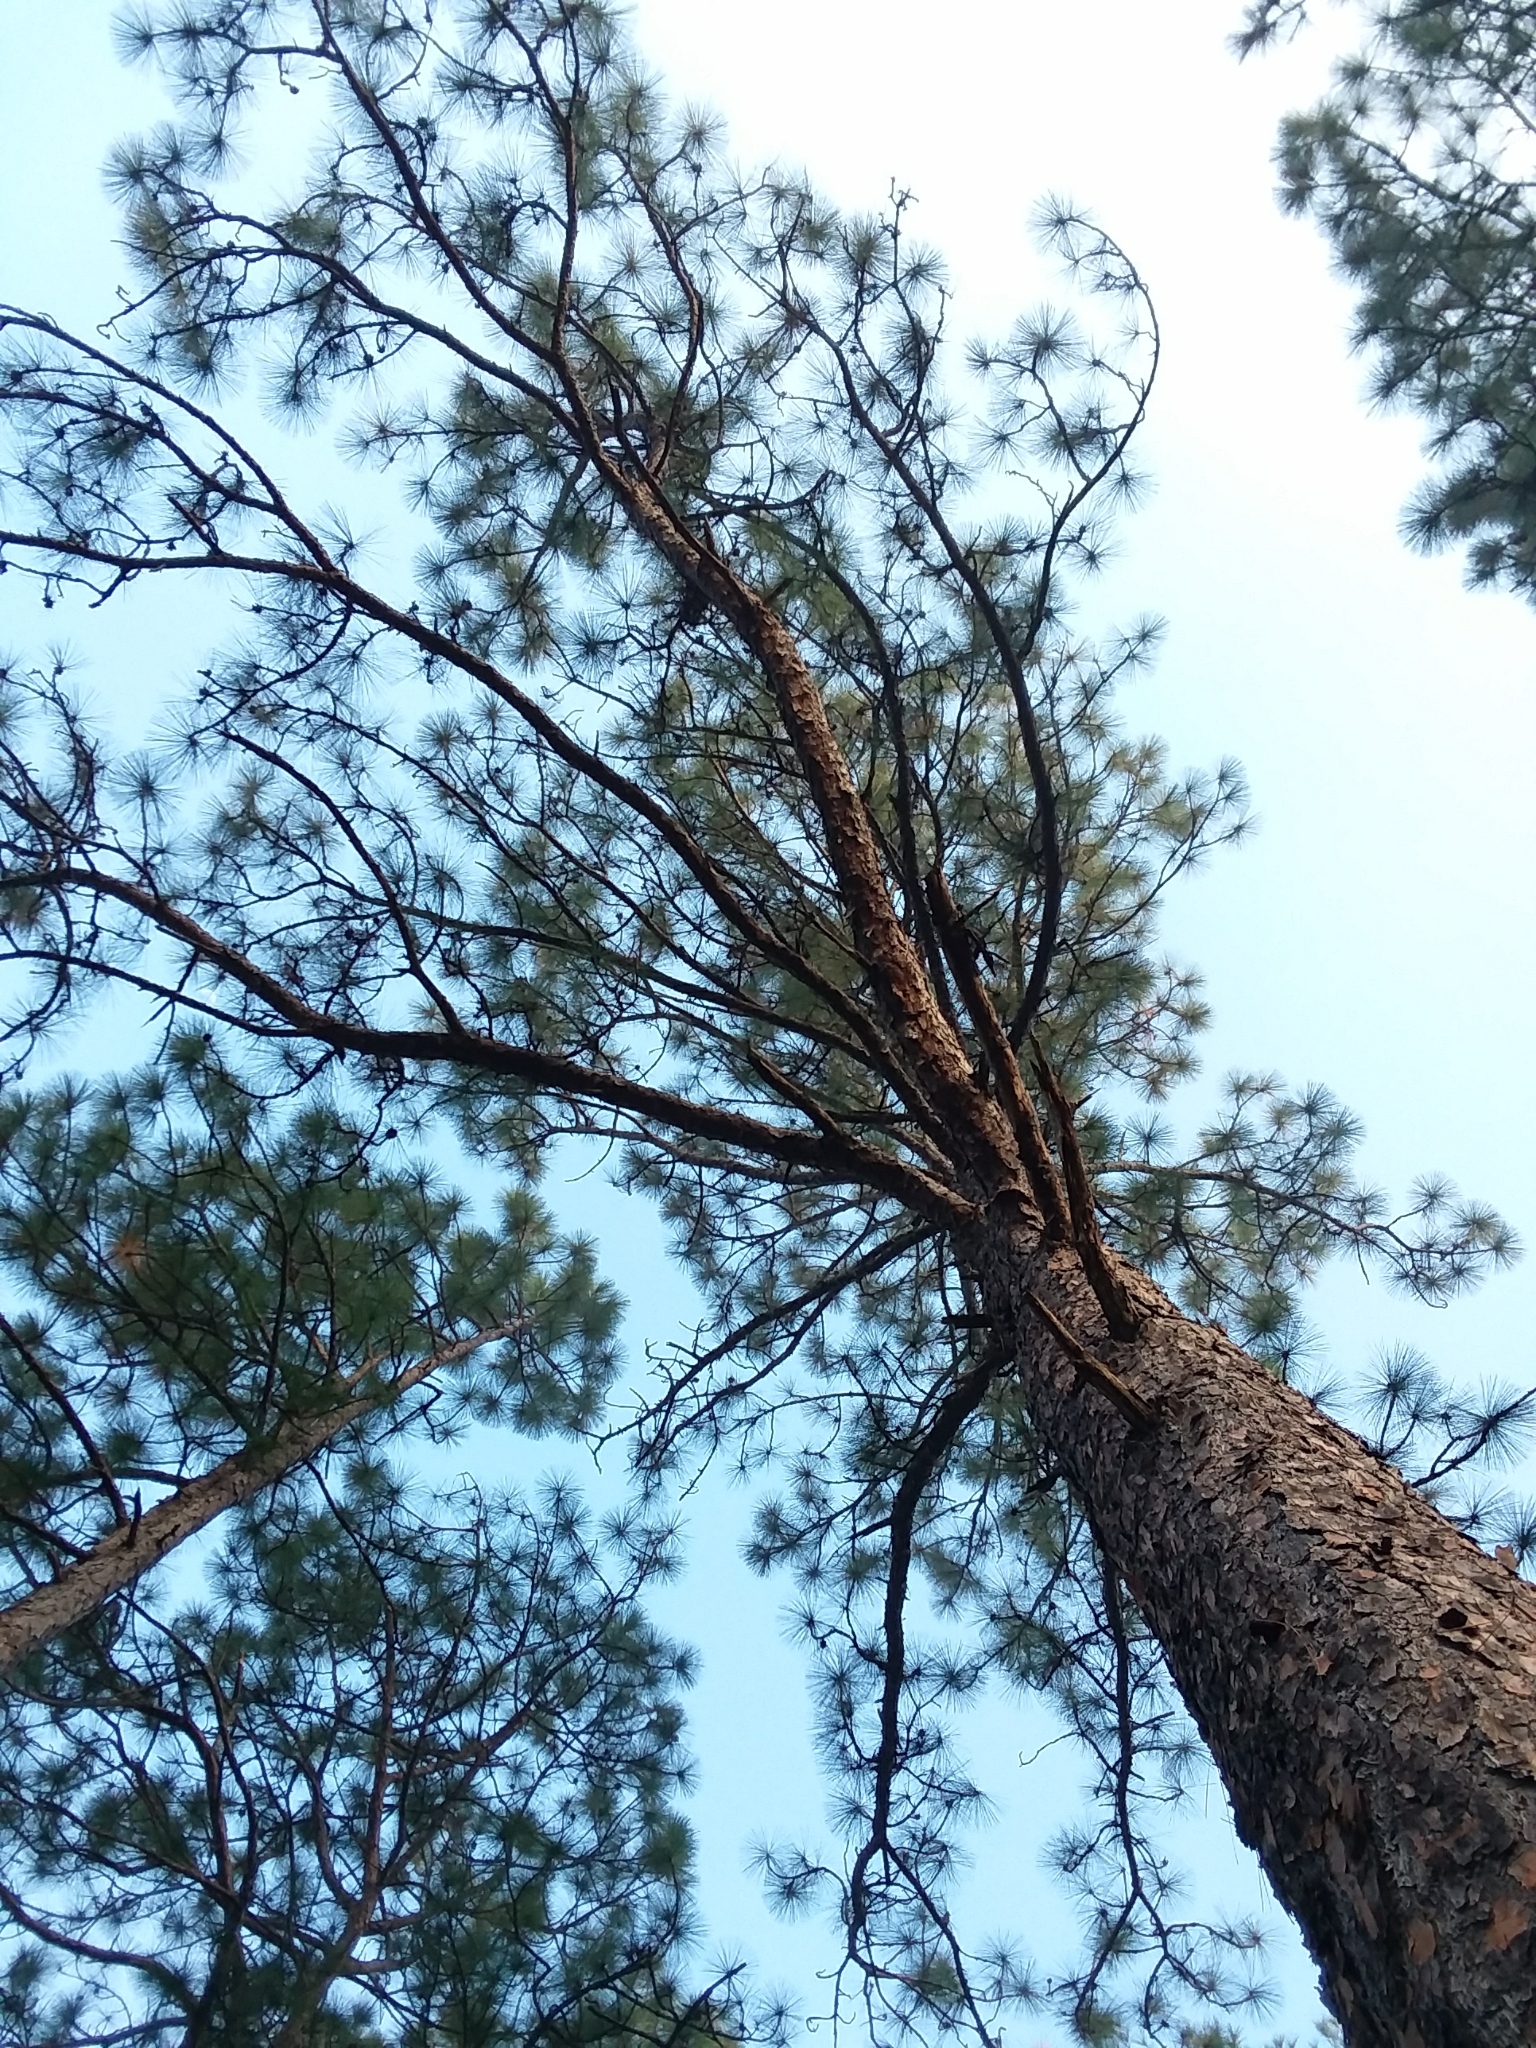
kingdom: Plantae
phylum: Tracheophyta
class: Pinopsida
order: Pinales
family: Pinaceae
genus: Pinus
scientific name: Pinus palustris
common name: Longleaf pine
